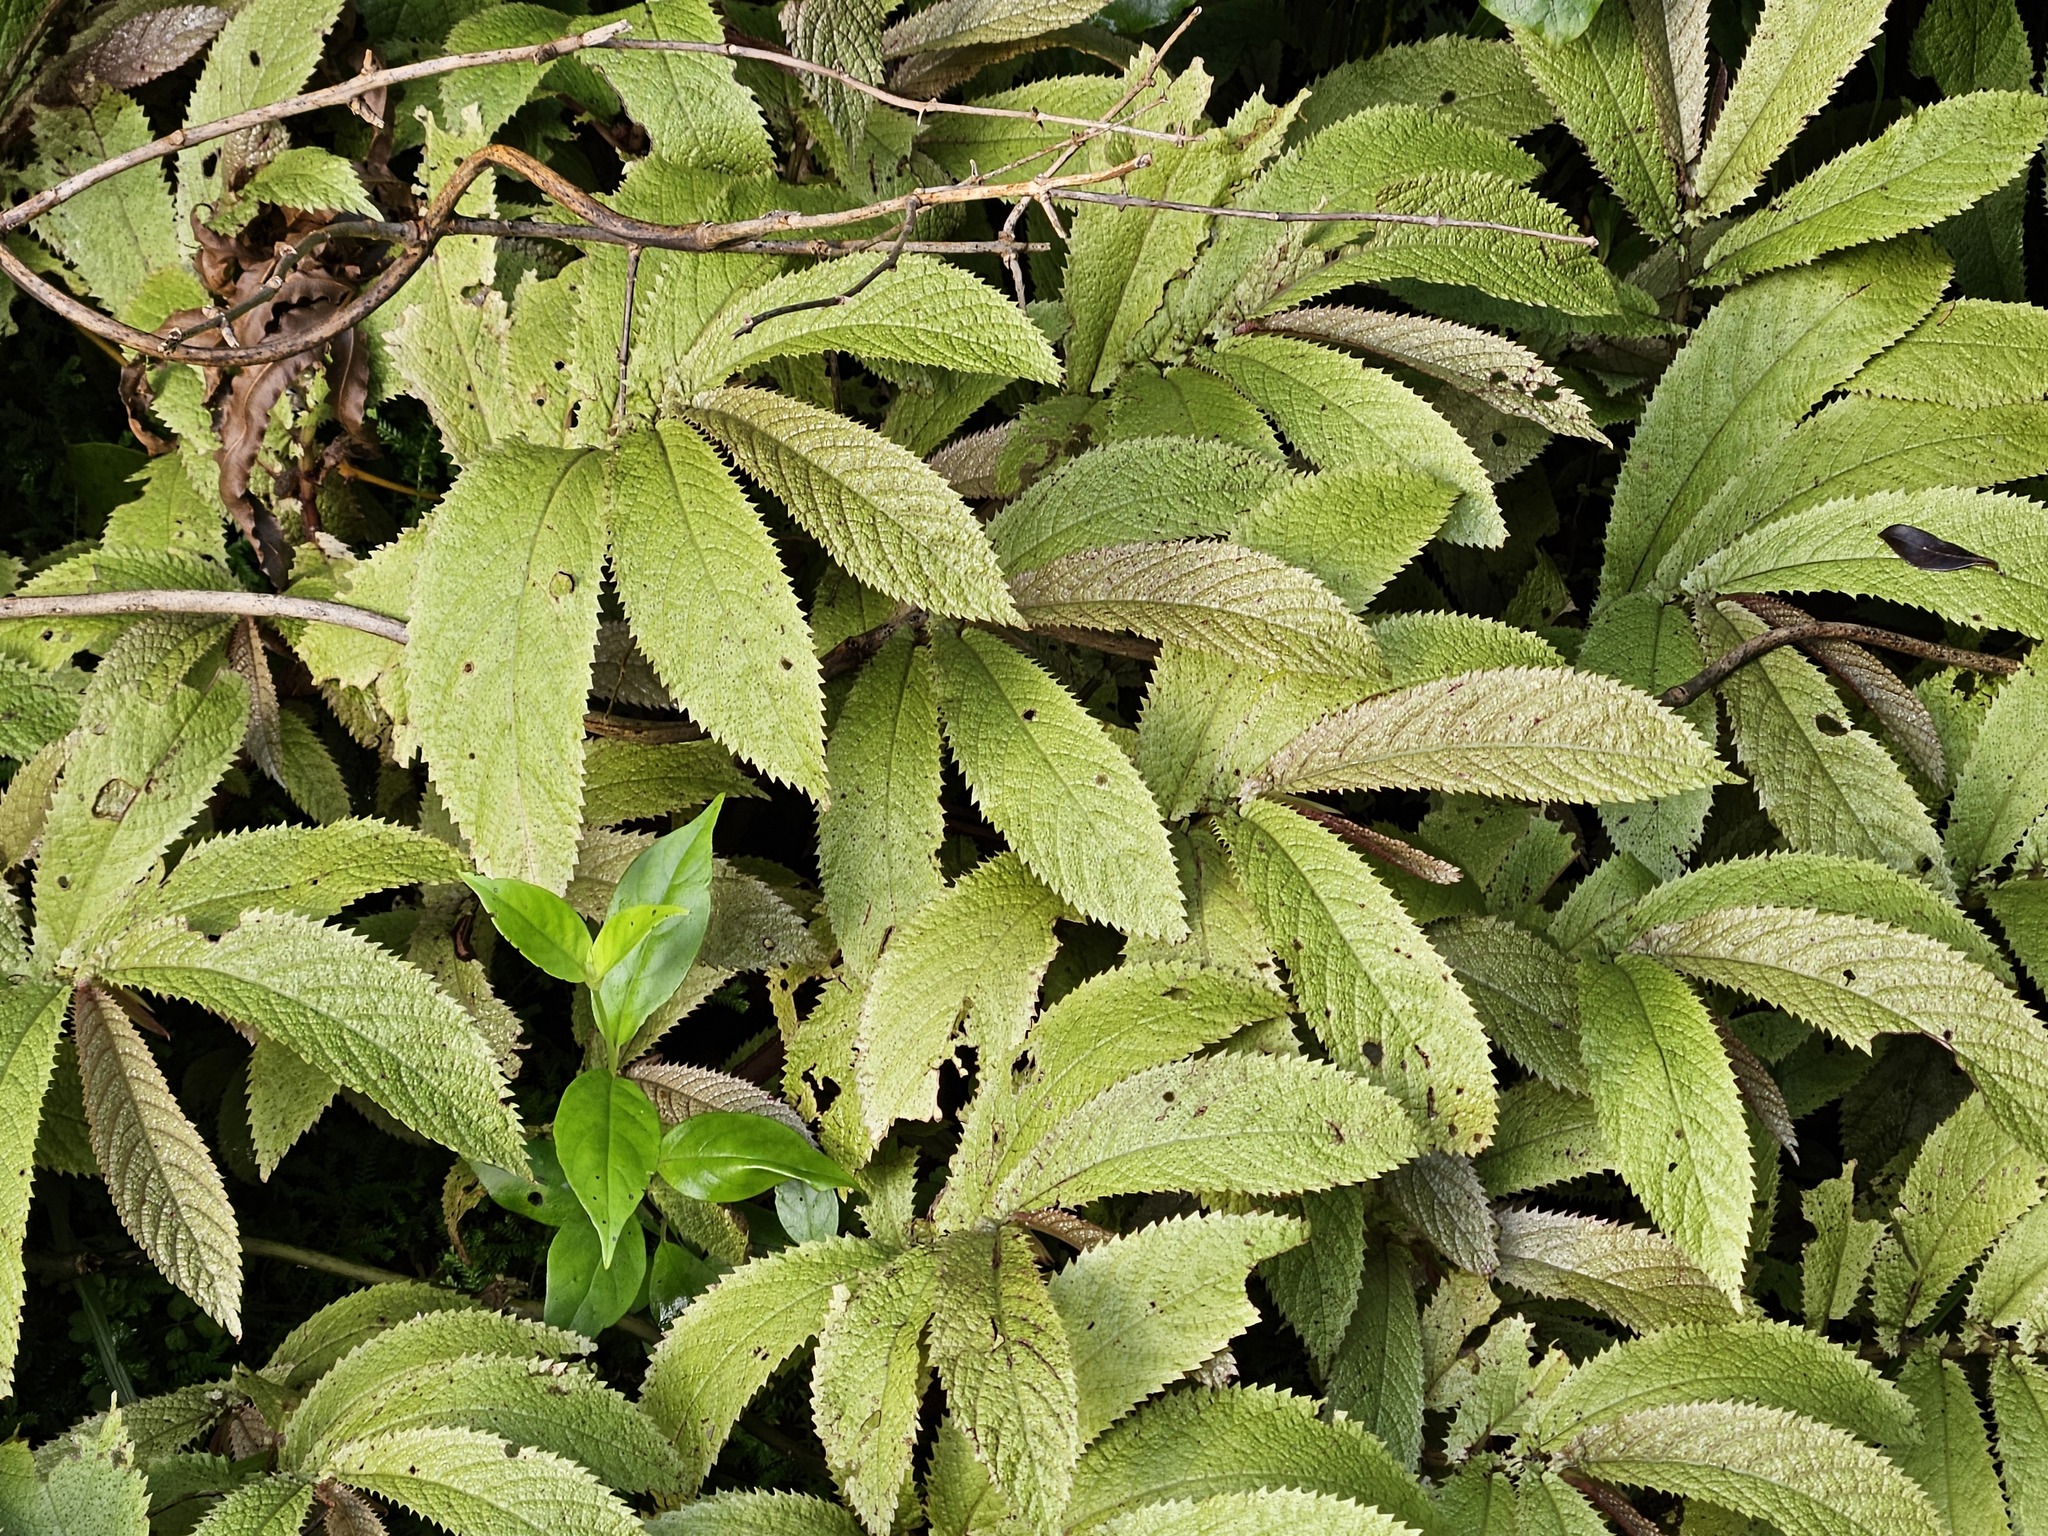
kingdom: Plantae
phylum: Tracheophyta
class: Magnoliopsida
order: Rosales
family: Urticaceae
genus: Elatostema
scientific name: Elatostema rugosum
